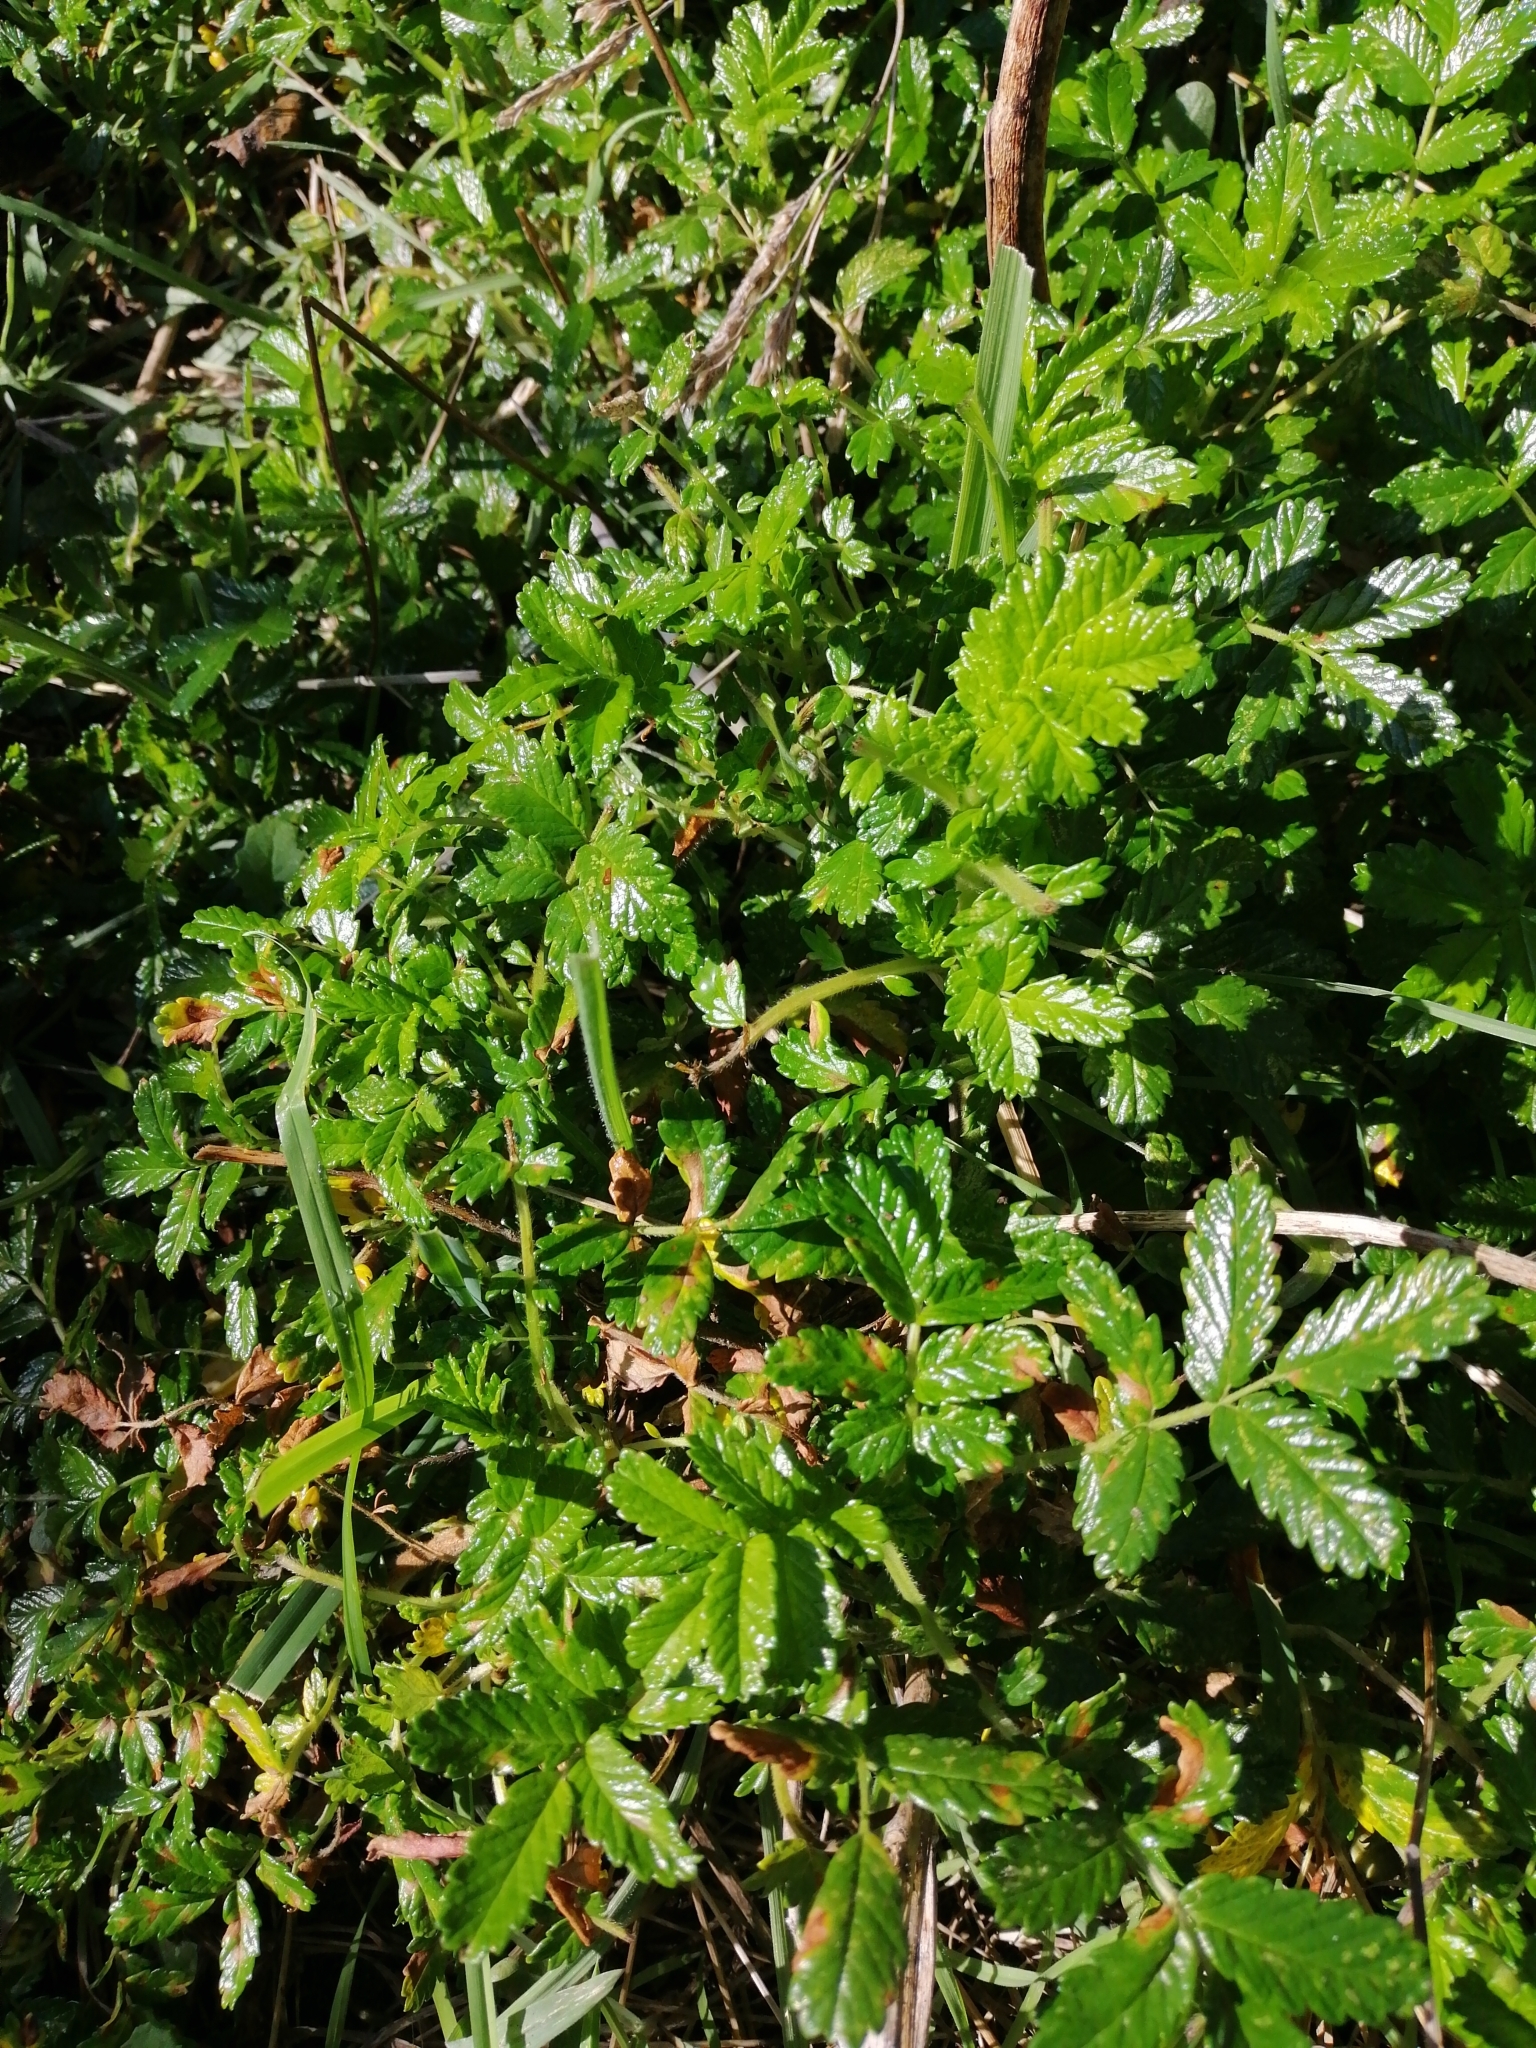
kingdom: Plantae
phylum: Tracheophyta
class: Magnoliopsida
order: Rosales
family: Rosaceae
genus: Acaena
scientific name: Acaena novae-zelandiae
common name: Pirri-pirri-bur
